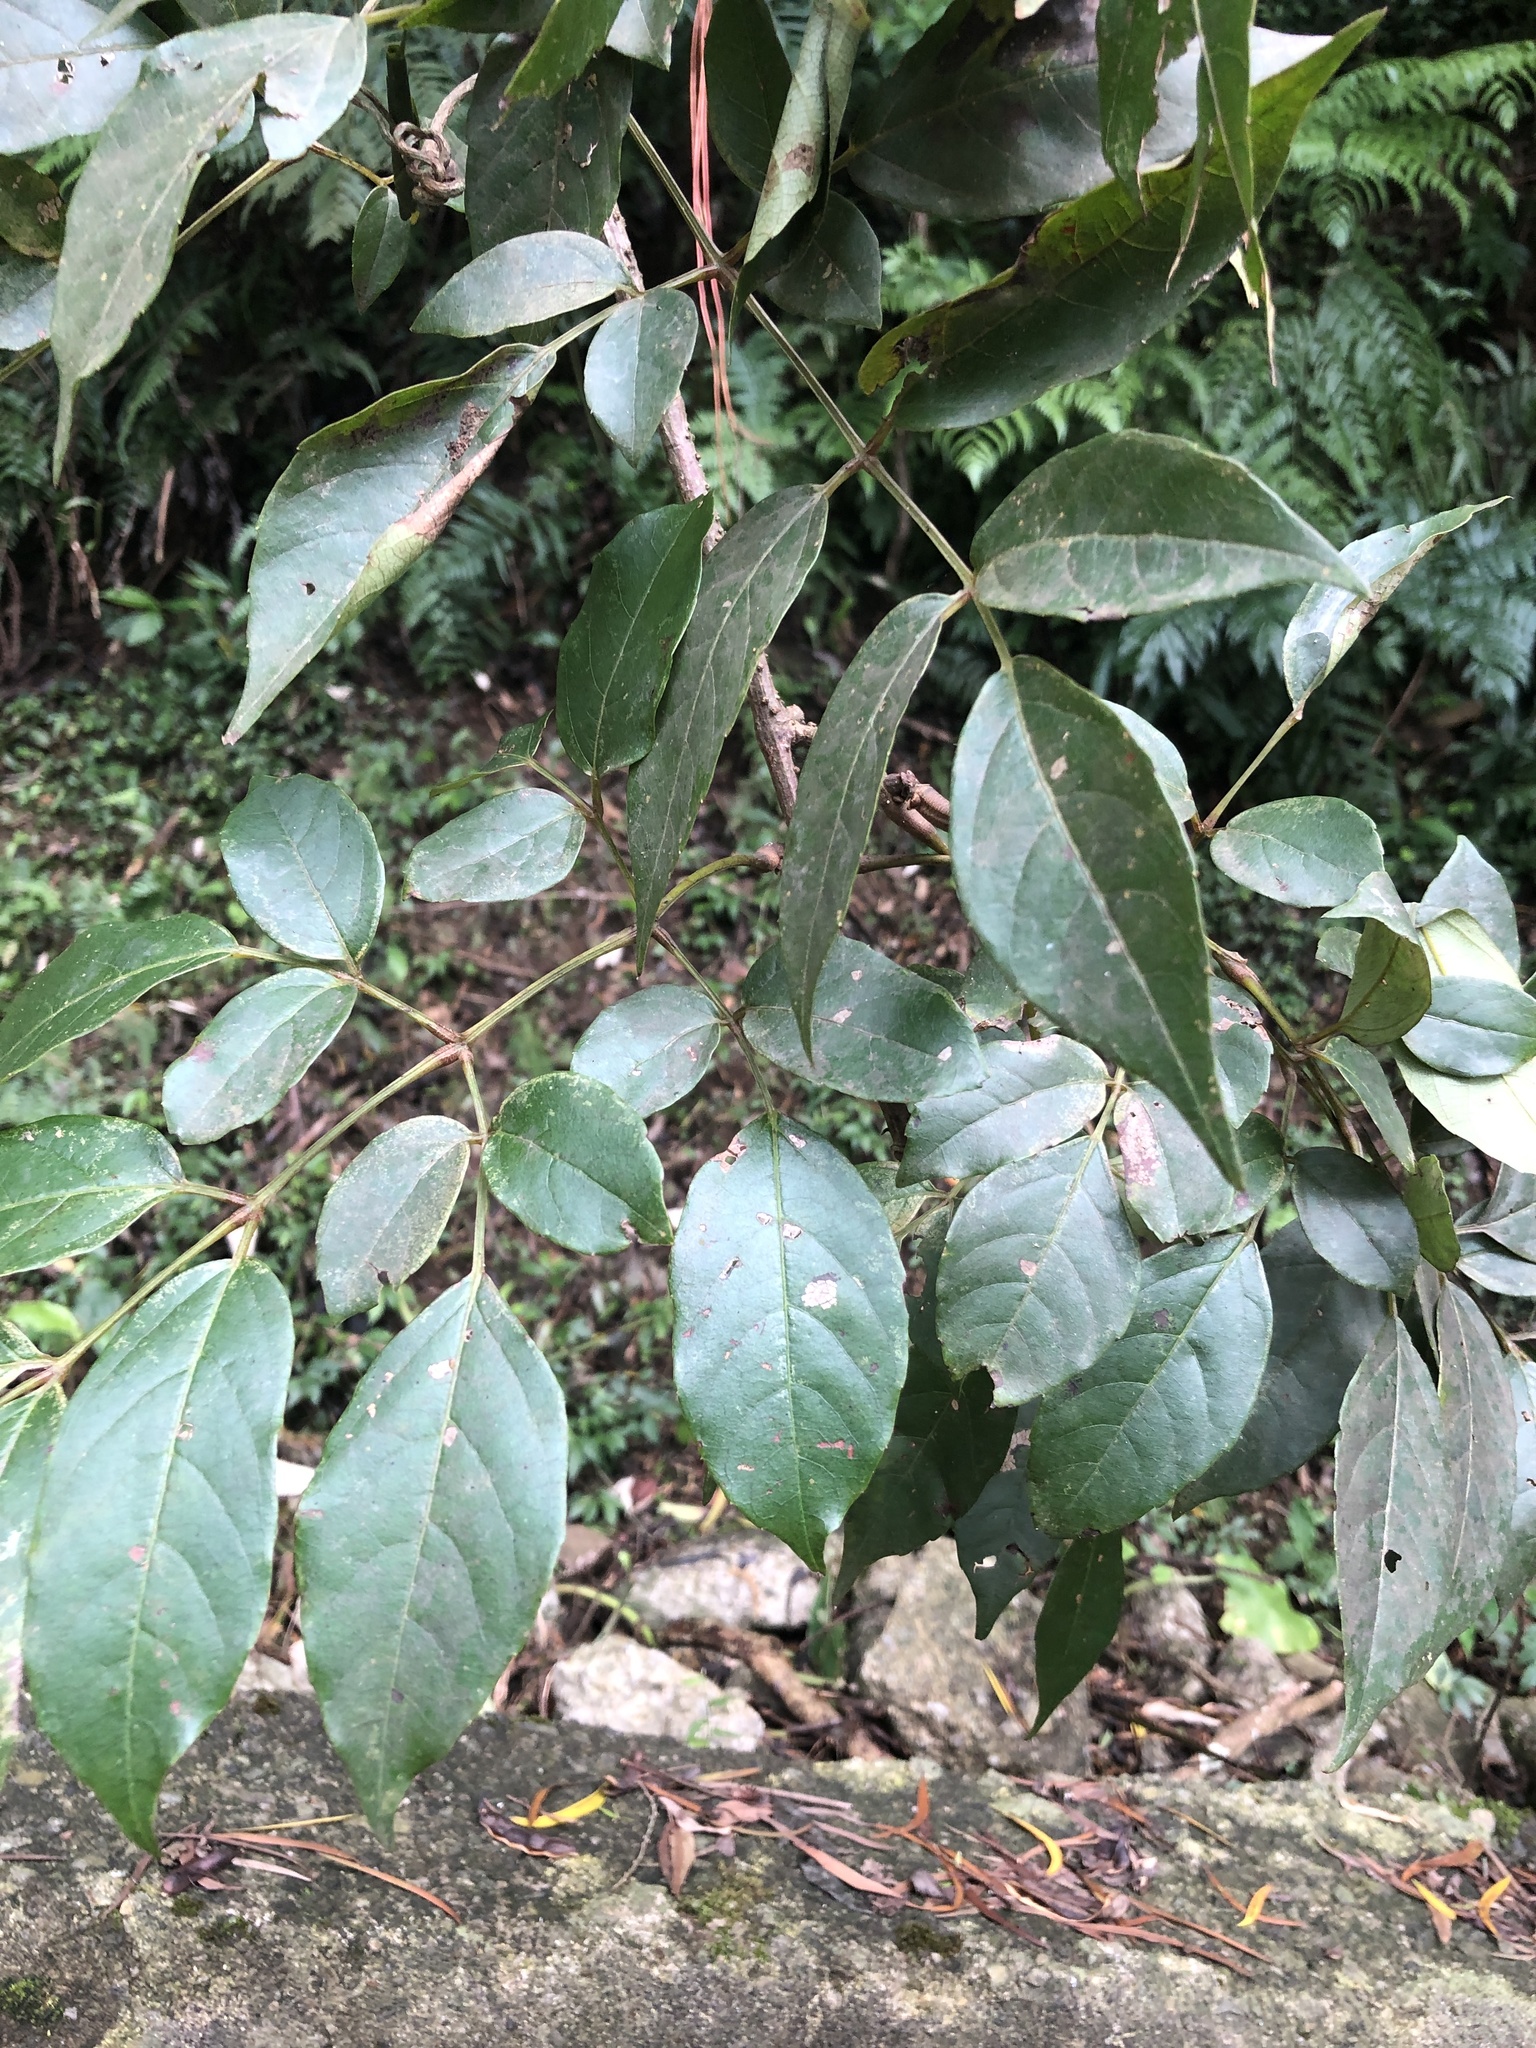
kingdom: Plantae
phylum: Tracheophyta
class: Magnoliopsida
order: Vitales
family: Vitaceae
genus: Nekemias
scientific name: Nekemias cantoniensis
